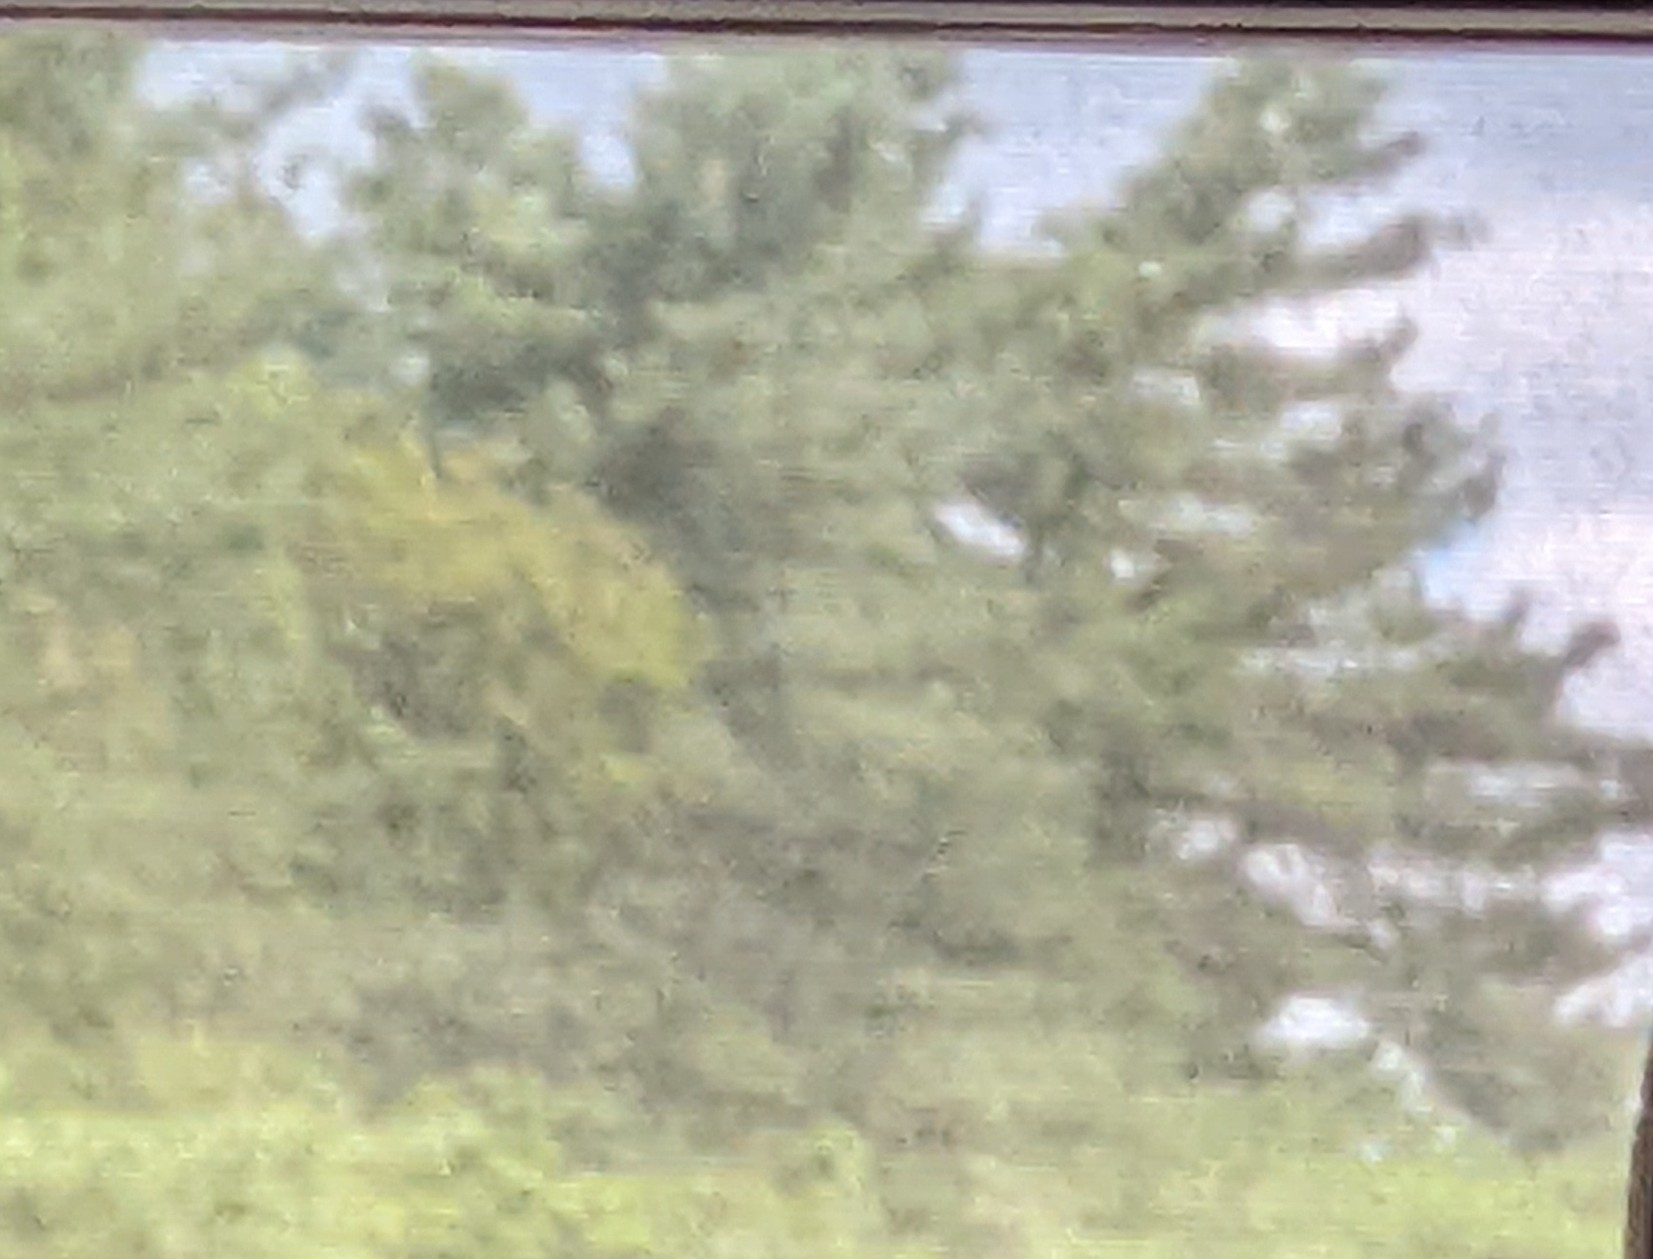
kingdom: Plantae
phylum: Tracheophyta
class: Pinopsida
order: Pinales
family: Pinaceae
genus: Pinus
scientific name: Pinus strobus
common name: Weymouth pine
